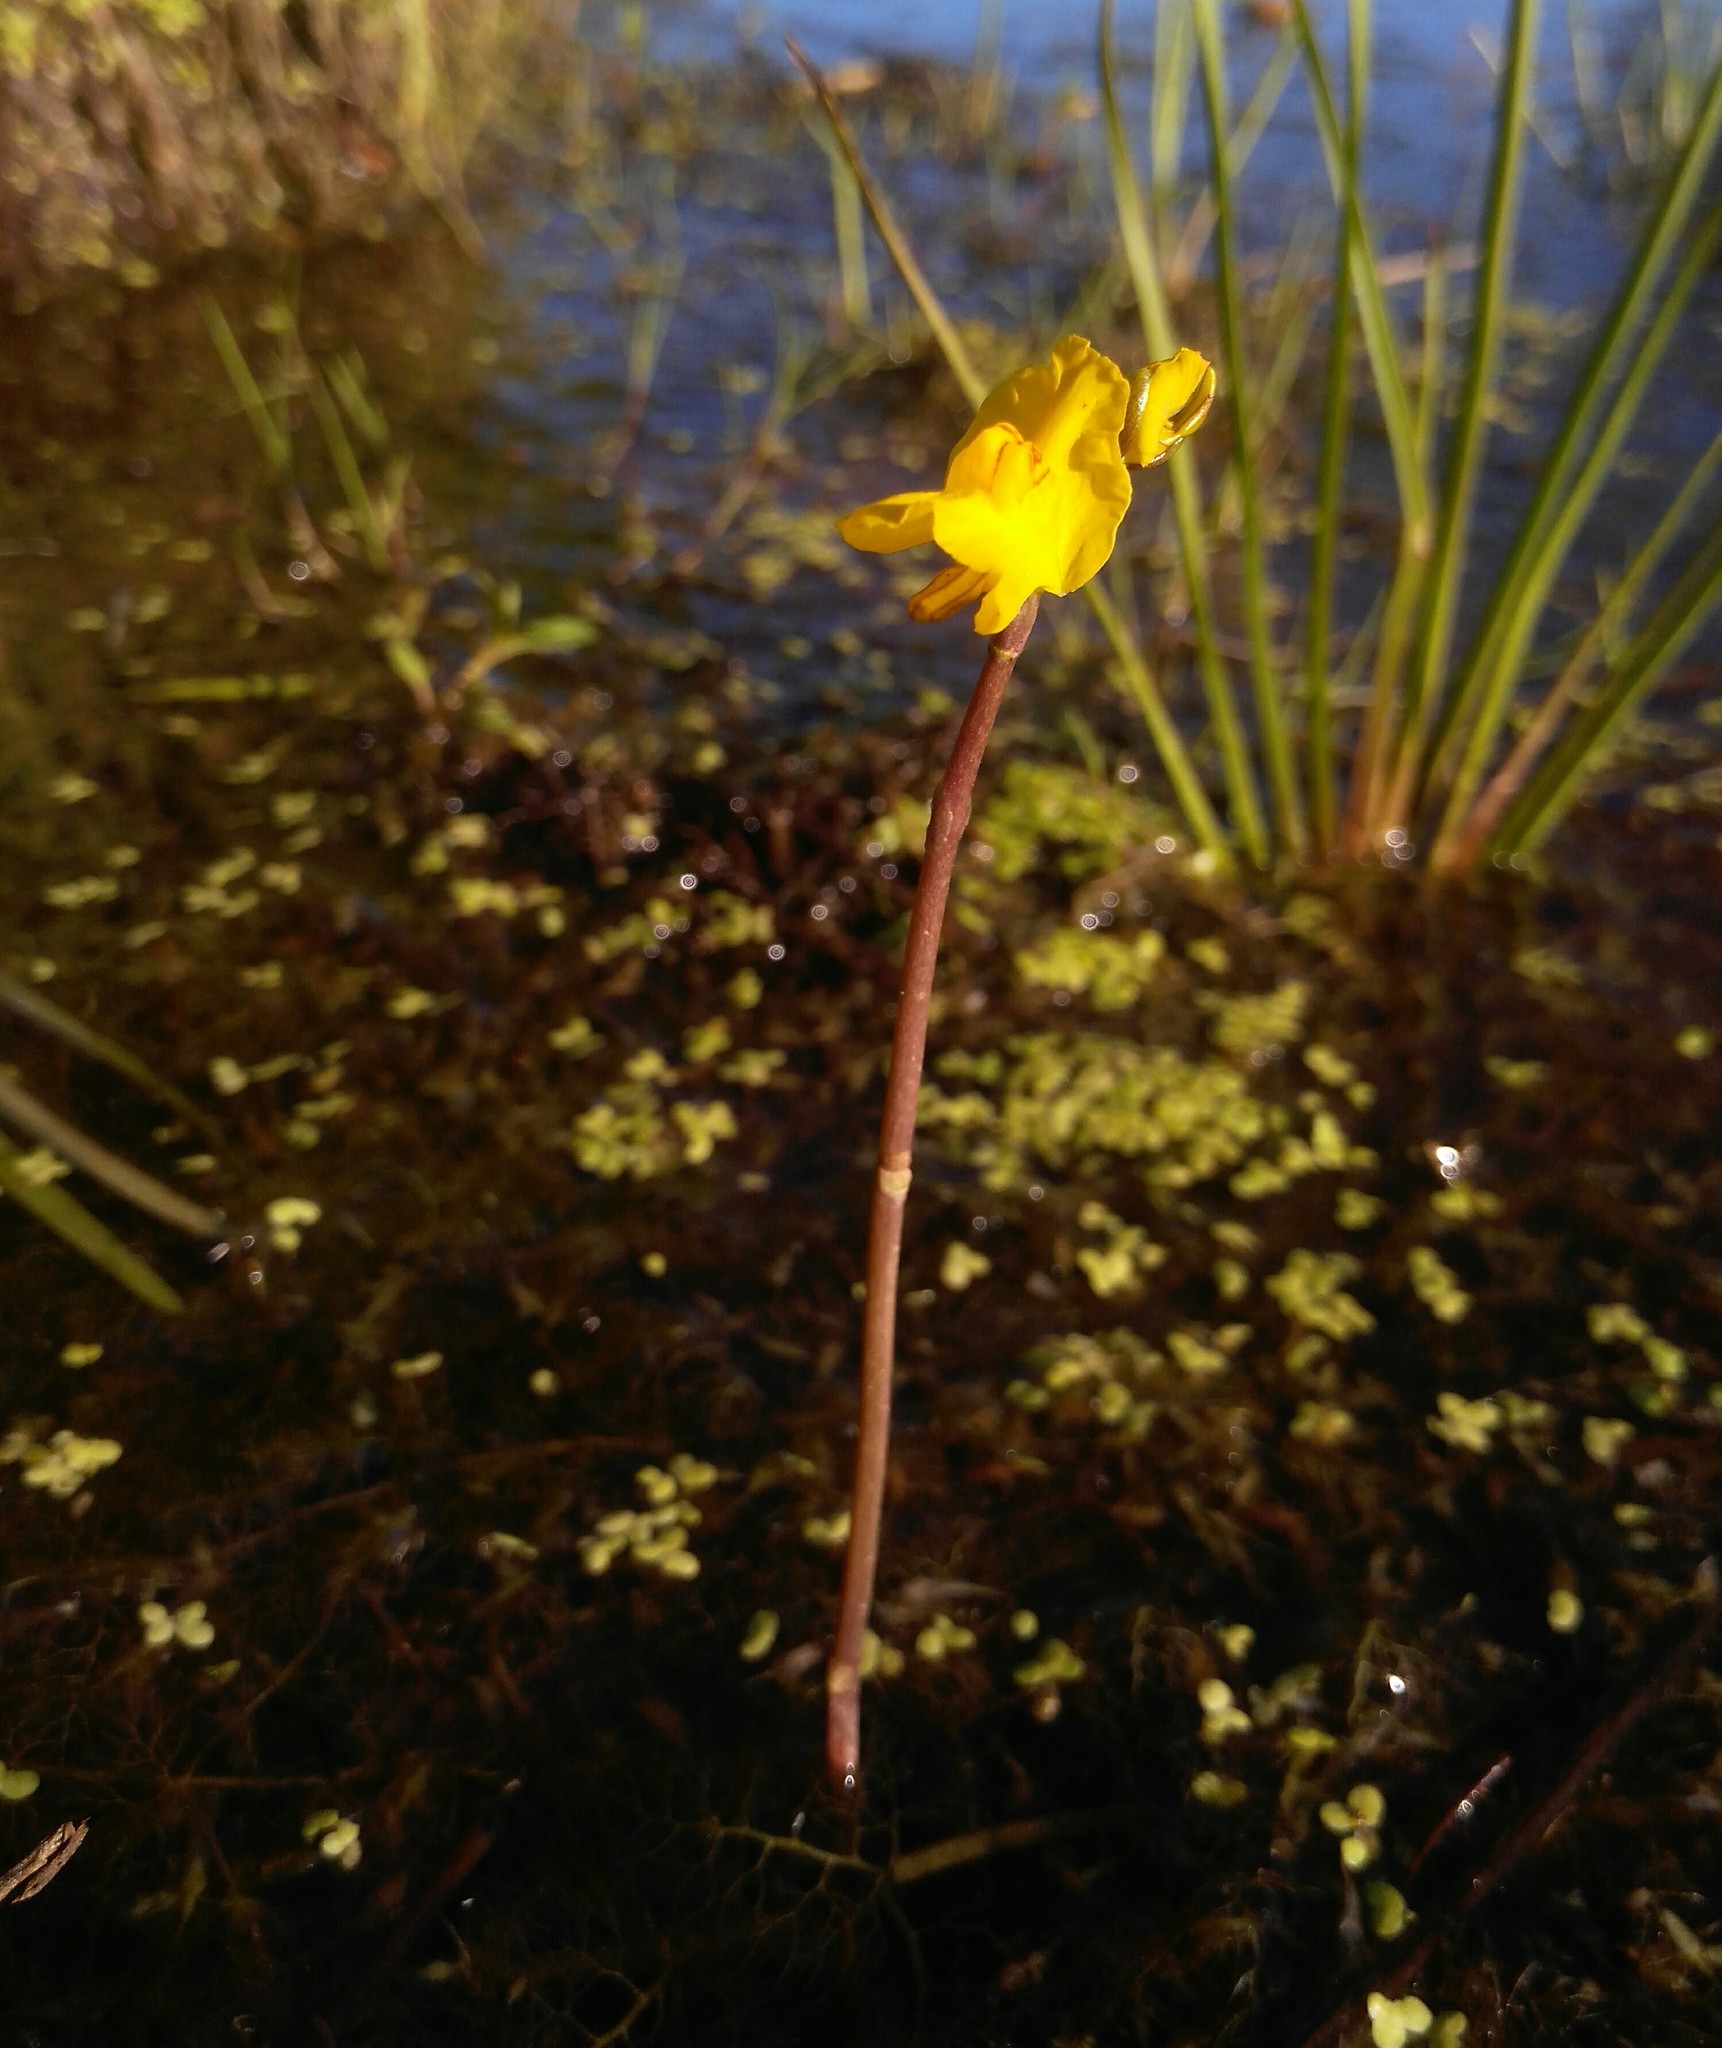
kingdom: Plantae
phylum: Tracheophyta
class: Magnoliopsida
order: Lamiales
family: Lentibulariaceae
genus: Utricularia
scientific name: Utricularia macrorhiza
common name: Common bladderwort
